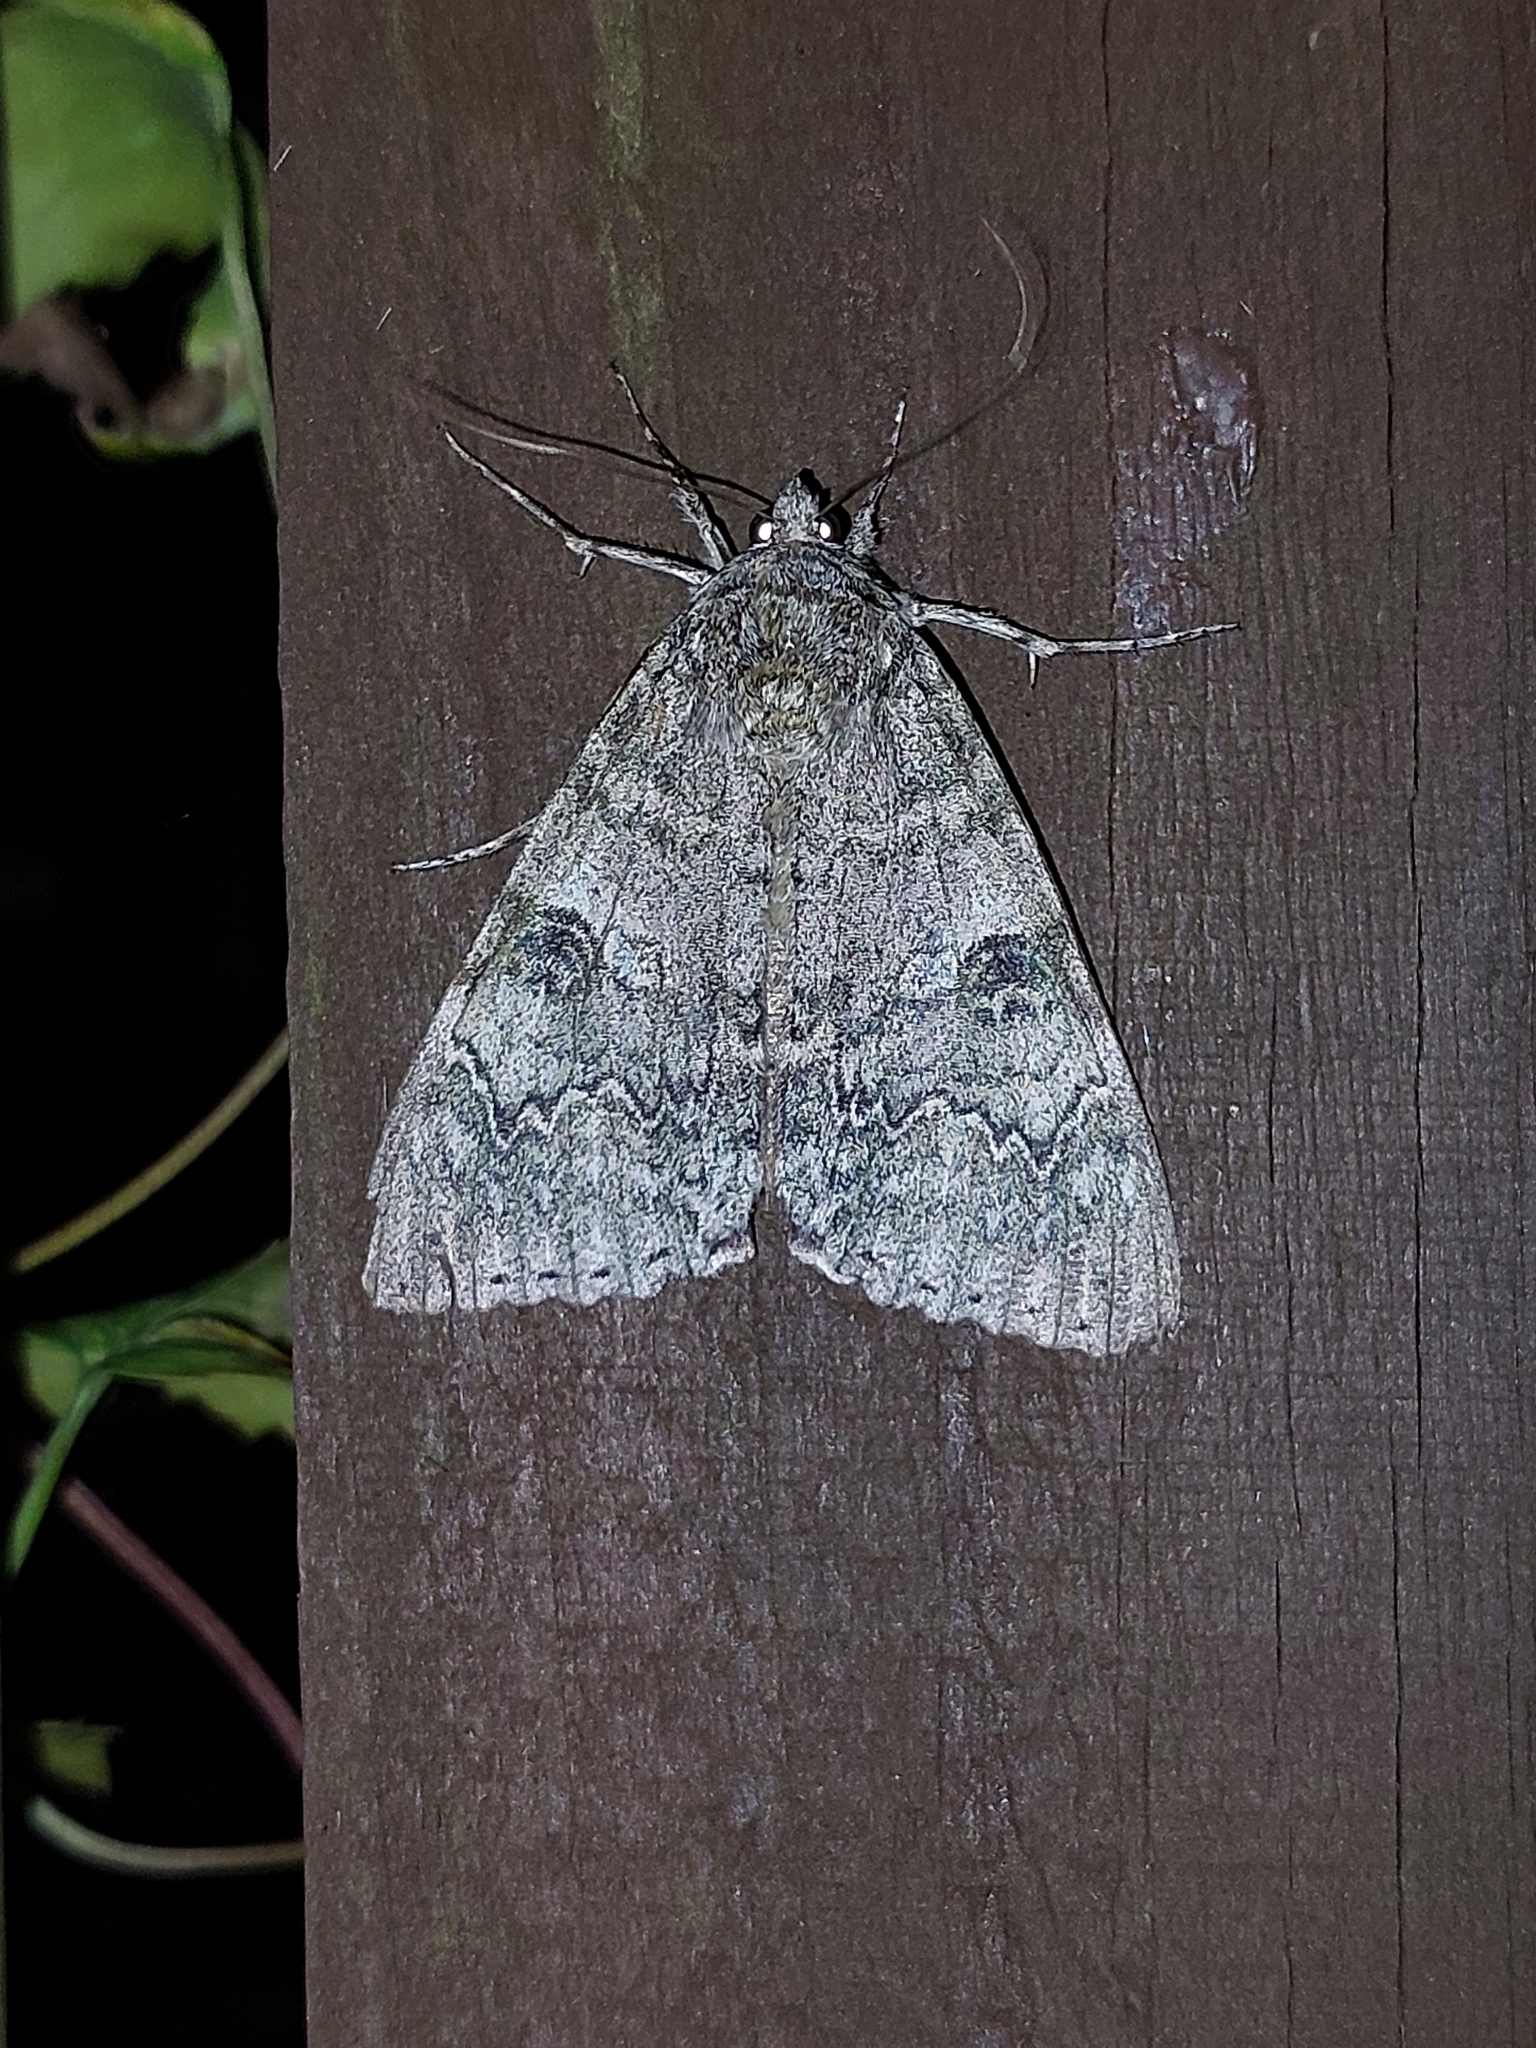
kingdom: Animalia
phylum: Arthropoda
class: Insecta
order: Lepidoptera
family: Erebidae
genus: Catocala
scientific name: Catocala nupta
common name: Red underwing
